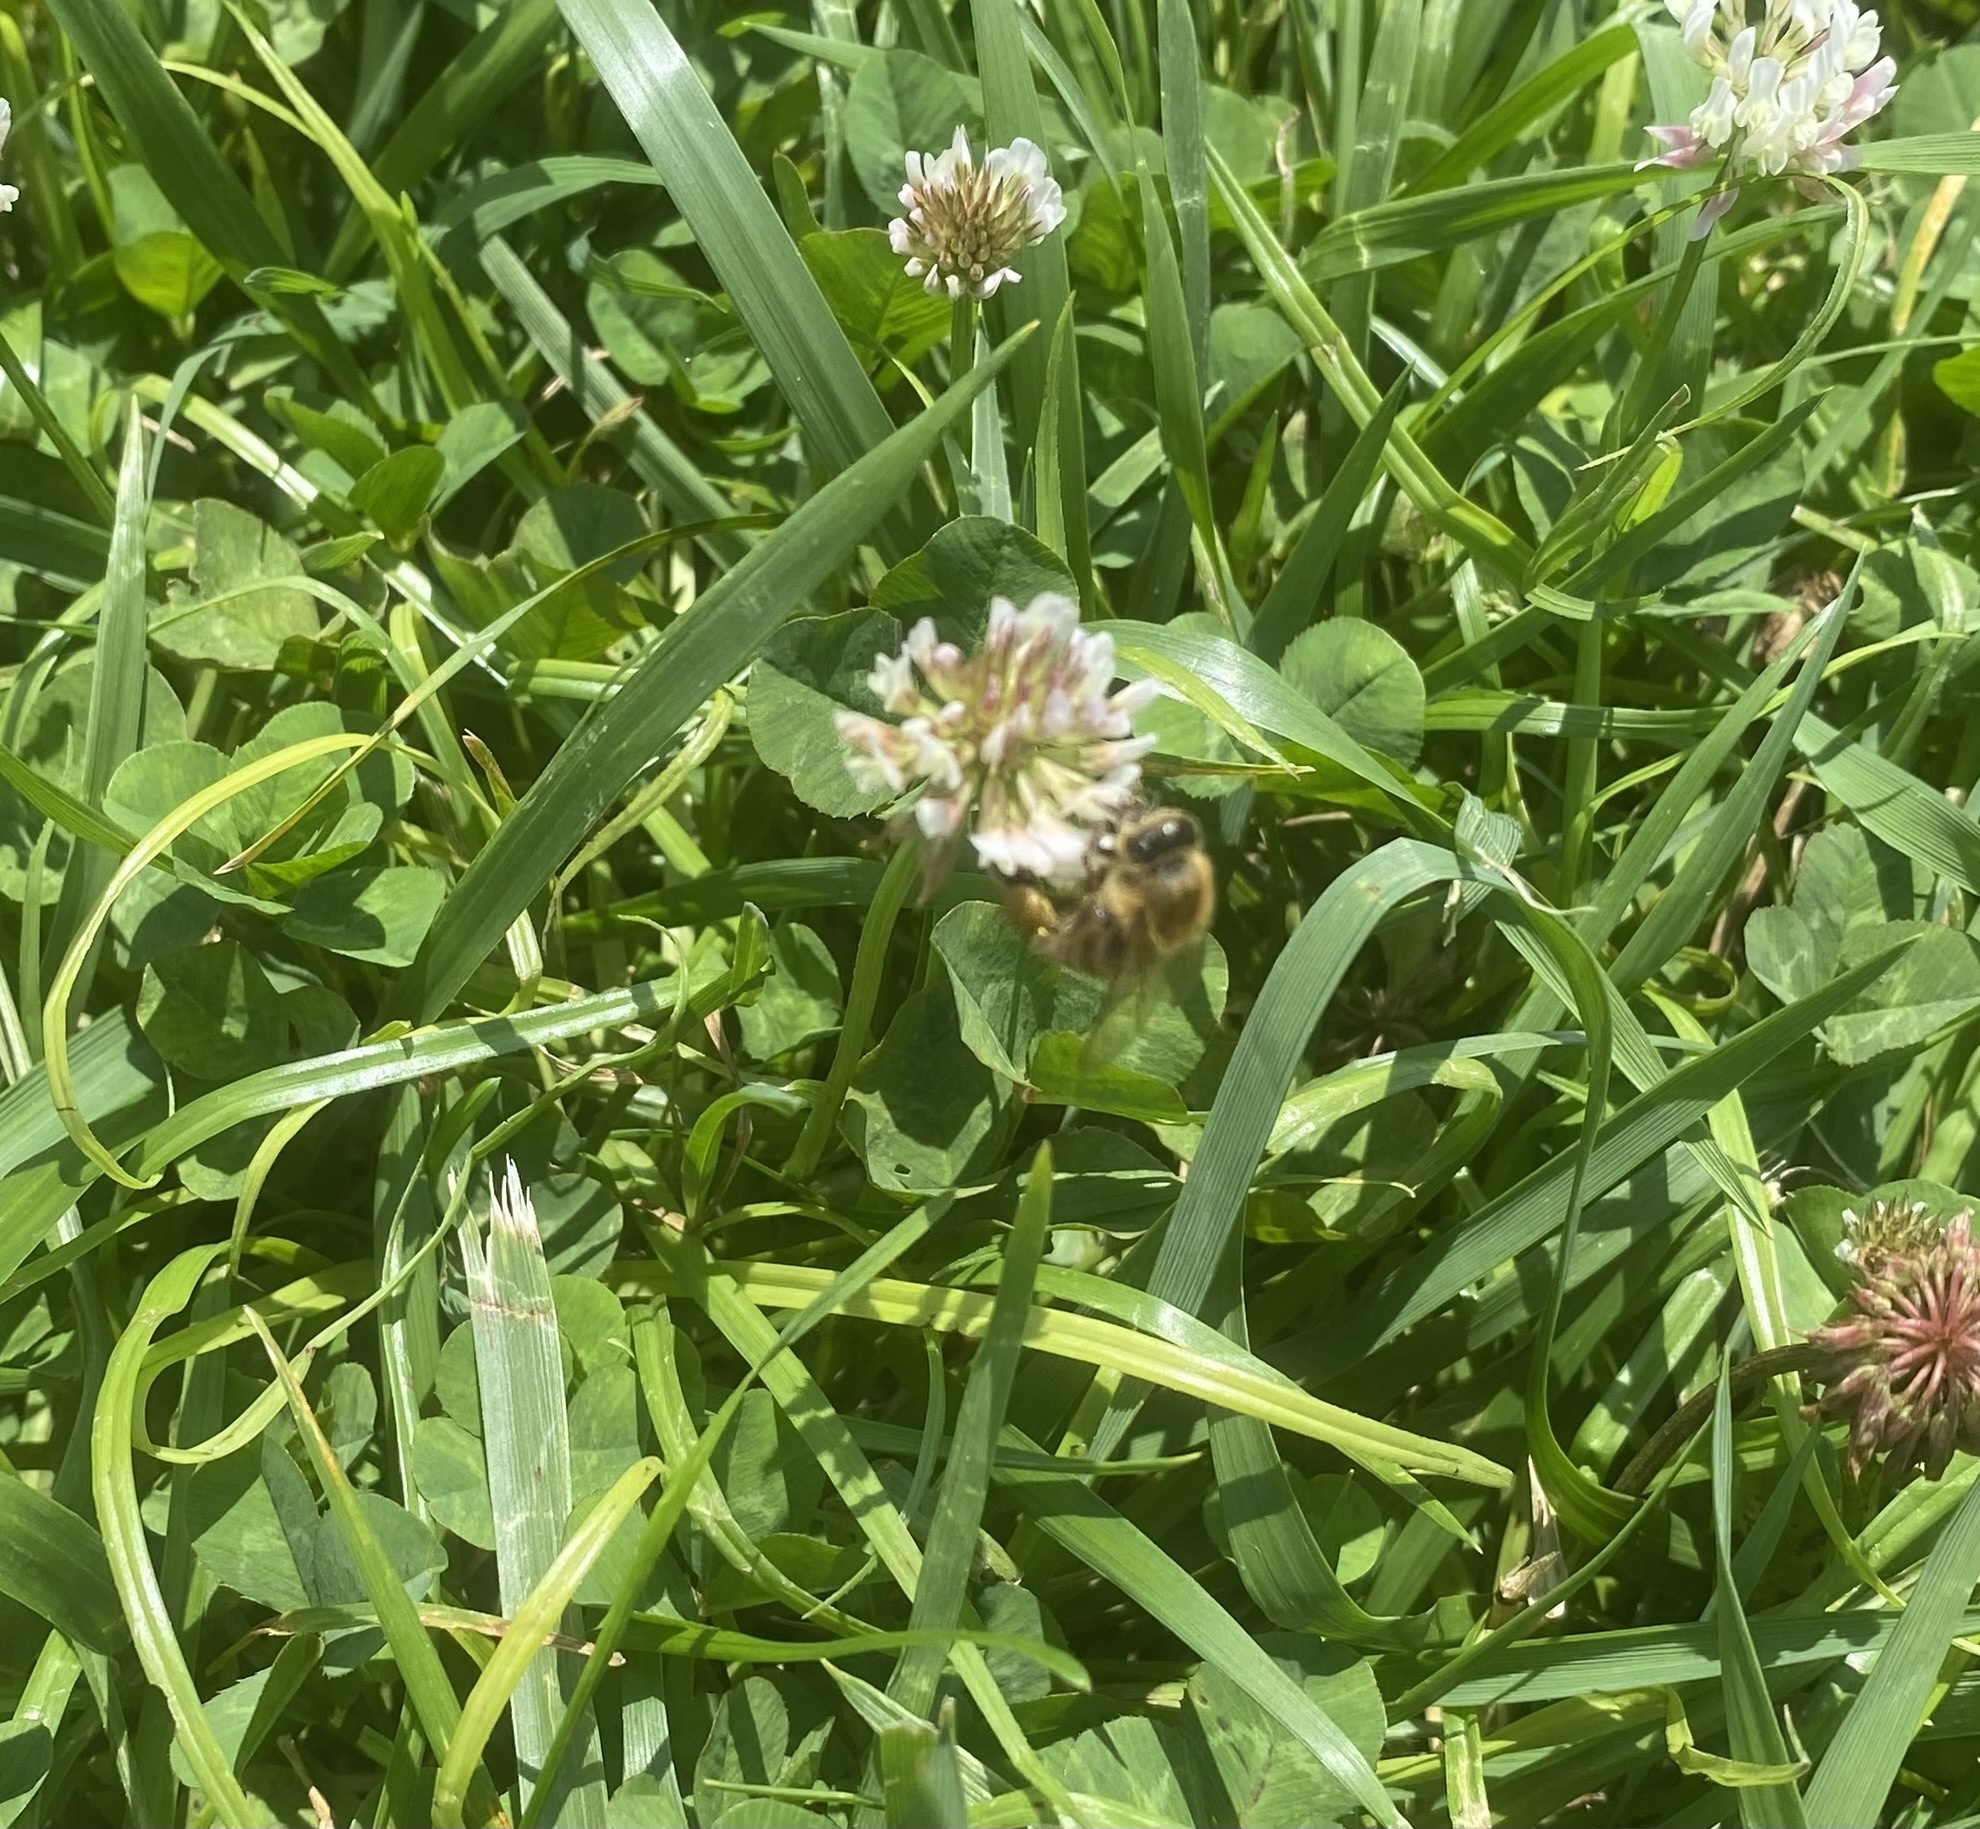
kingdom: Animalia
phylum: Arthropoda
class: Insecta
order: Hymenoptera
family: Apidae
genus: Apis
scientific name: Apis mellifera
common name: Honey bee
